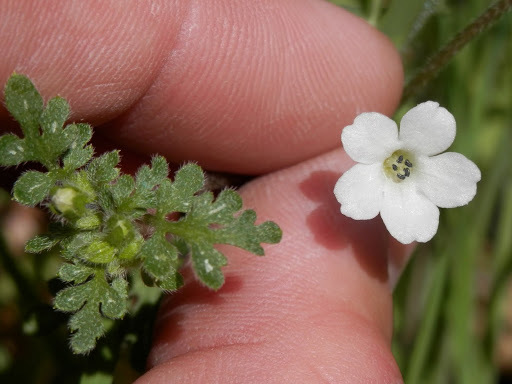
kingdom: Plantae
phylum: Tracheophyta
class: Magnoliopsida
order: Boraginales
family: Hydrophyllaceae
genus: Nemophila
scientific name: Nemophila heterophylla
